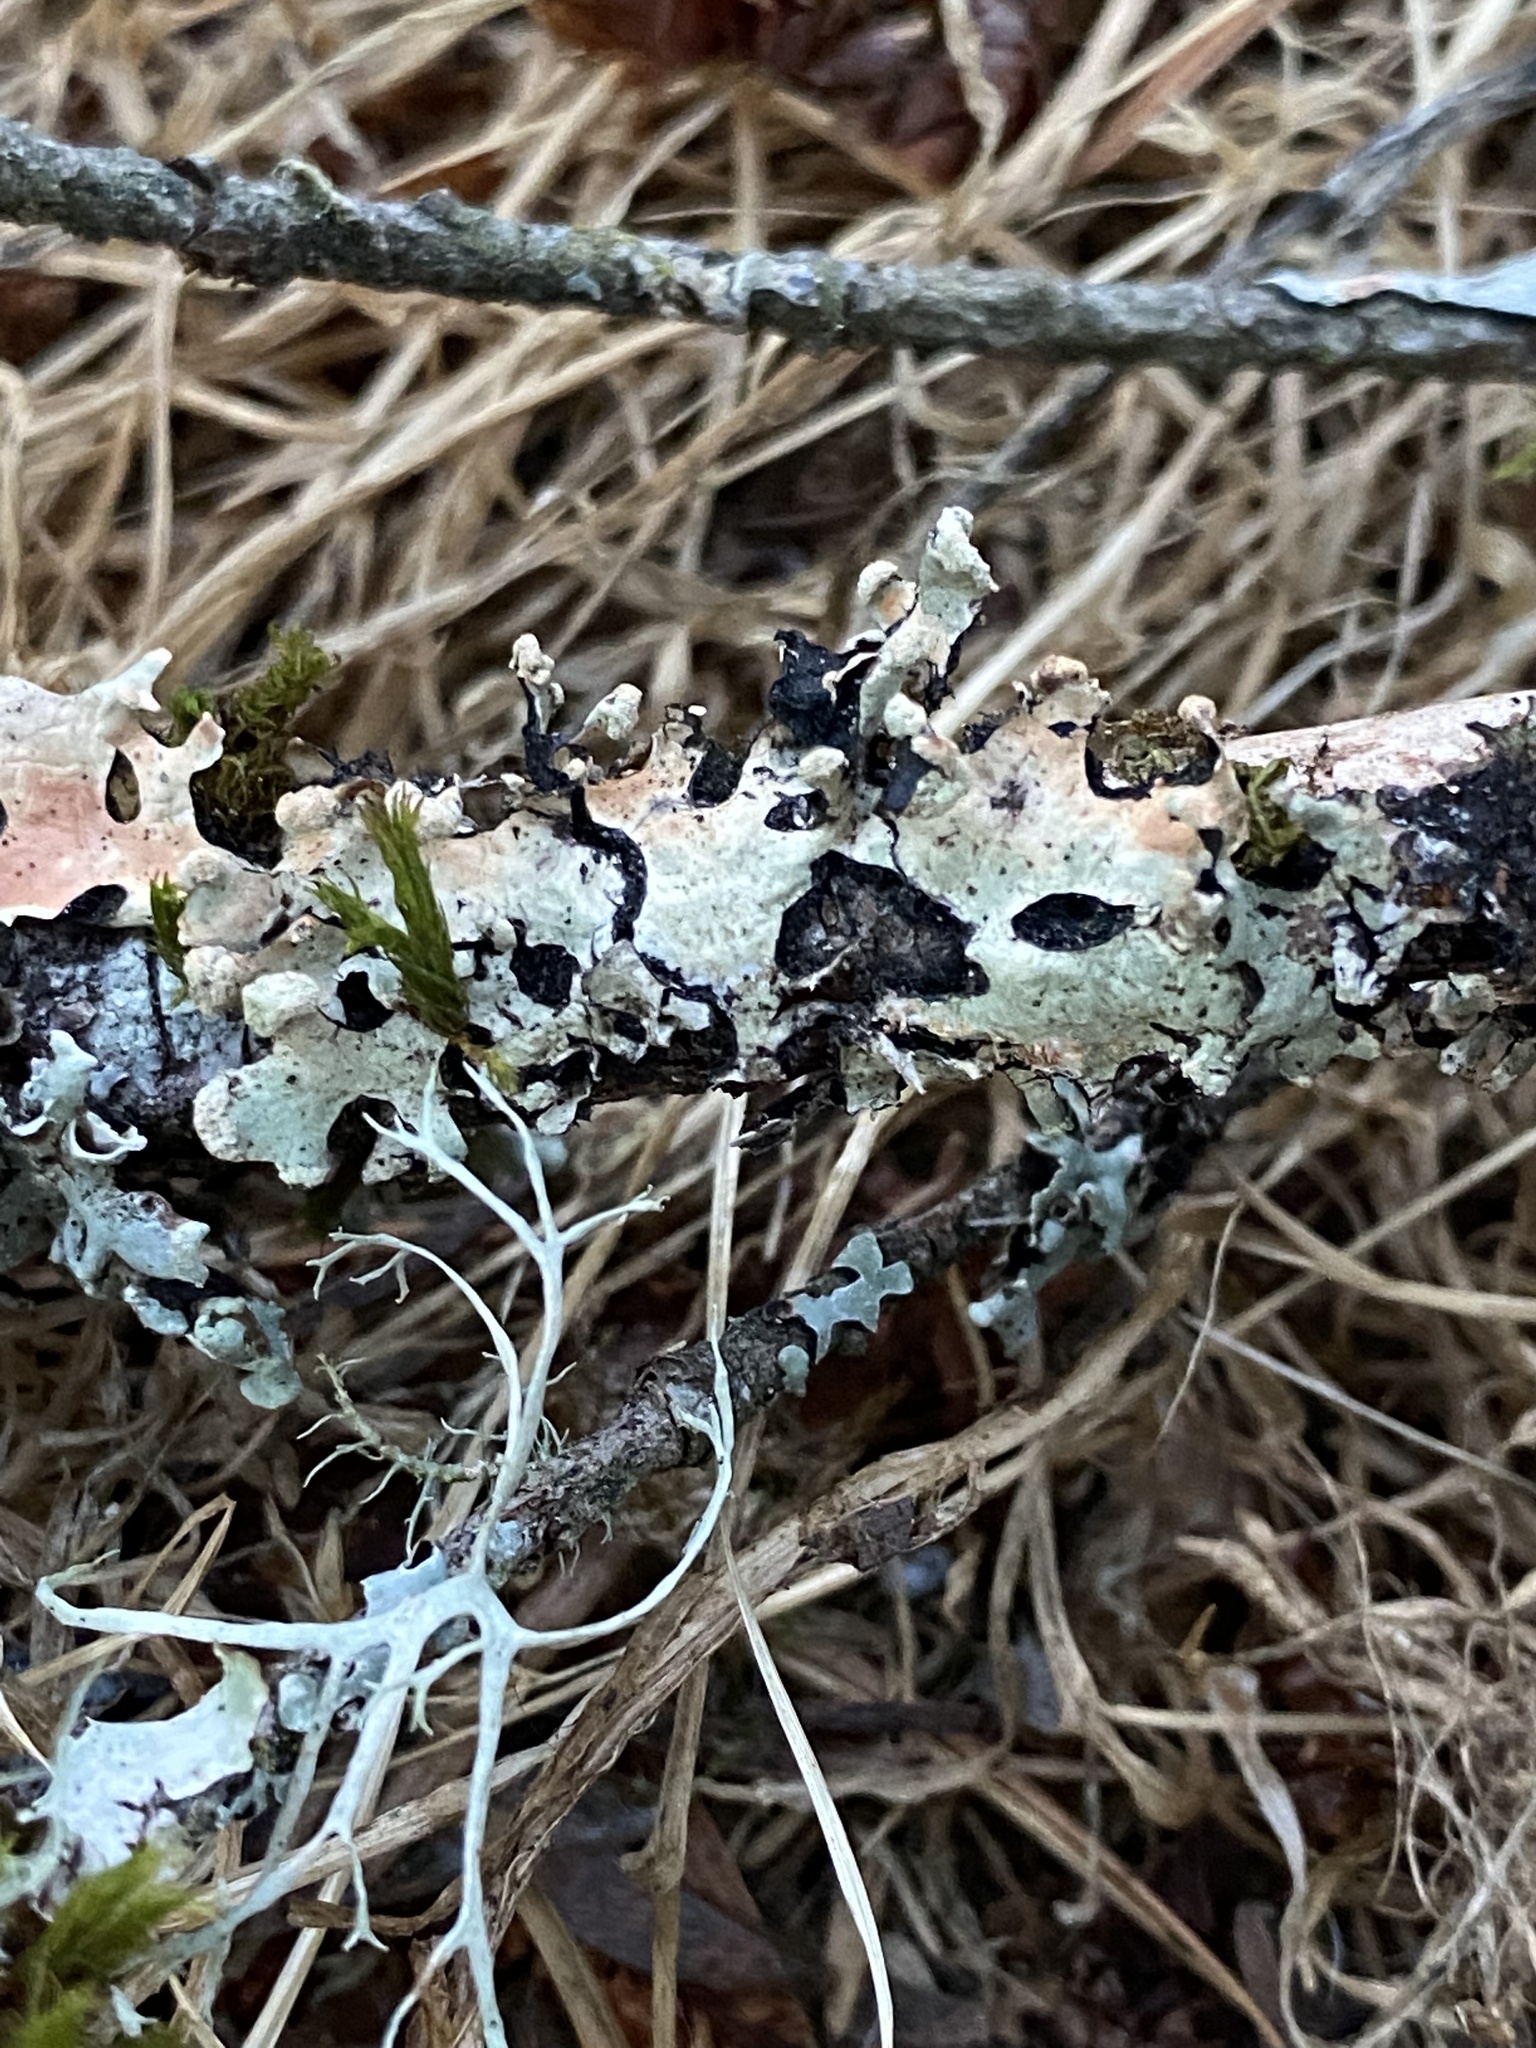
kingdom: Fungi
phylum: Ascomycota
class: Lecanoromycetes
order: Lecanorales
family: Parmeliaceae
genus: Hypotrachyna
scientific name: Hypotrachyna sinuosa
